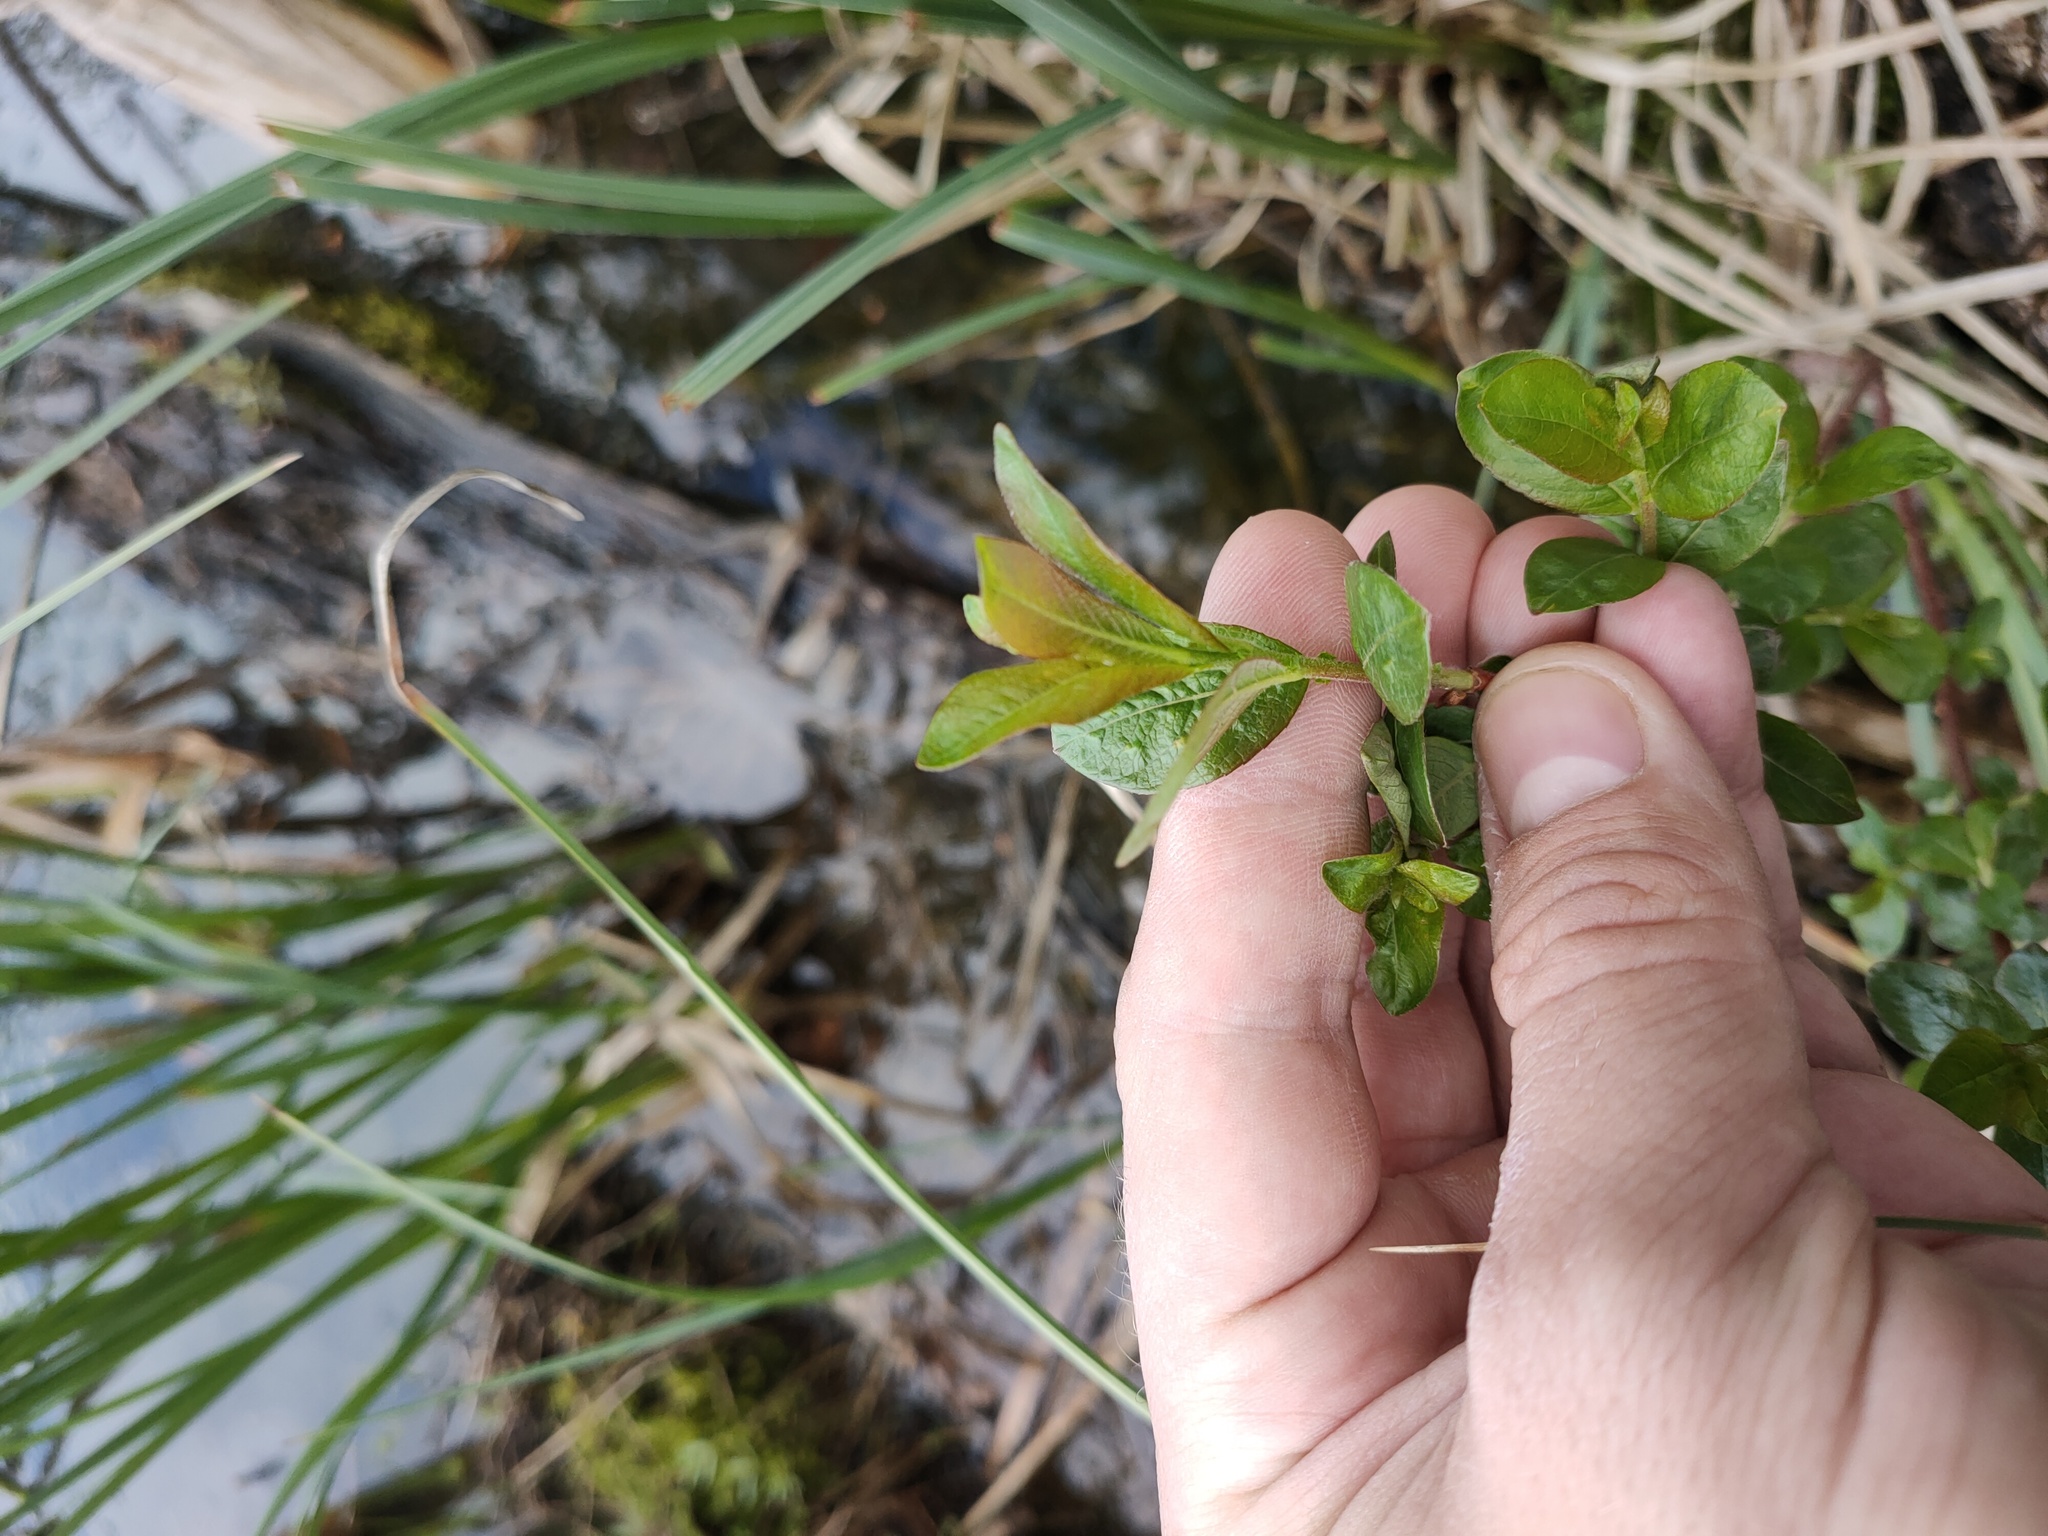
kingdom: Plantae
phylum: Tracheophyta
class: Magnoliopsida
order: Malpighiales
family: Salicaceae
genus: Salix
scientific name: Salix myrsinifolia
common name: Dark-leaved willow
